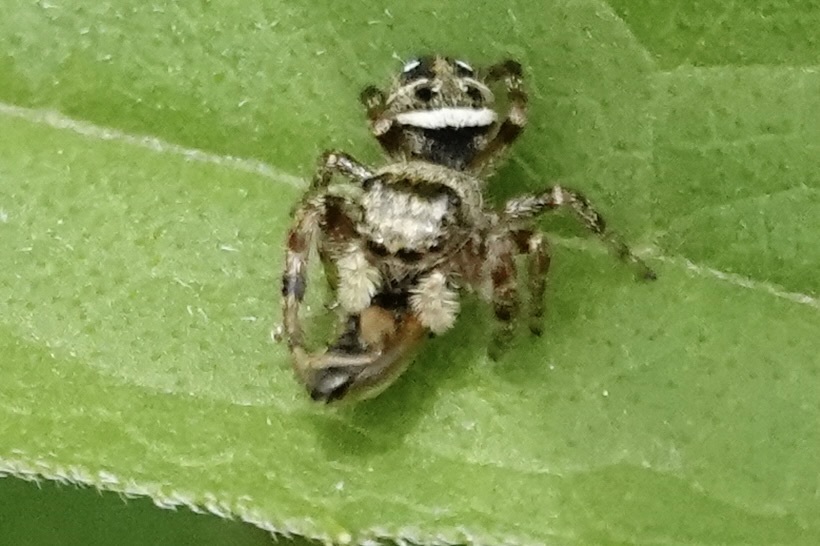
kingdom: Animalia
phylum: Arthropoda
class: Arachnida
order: Araneae
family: Salticidae
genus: Phidippus
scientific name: Phidippus clarus
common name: Brilliant jumping spider
